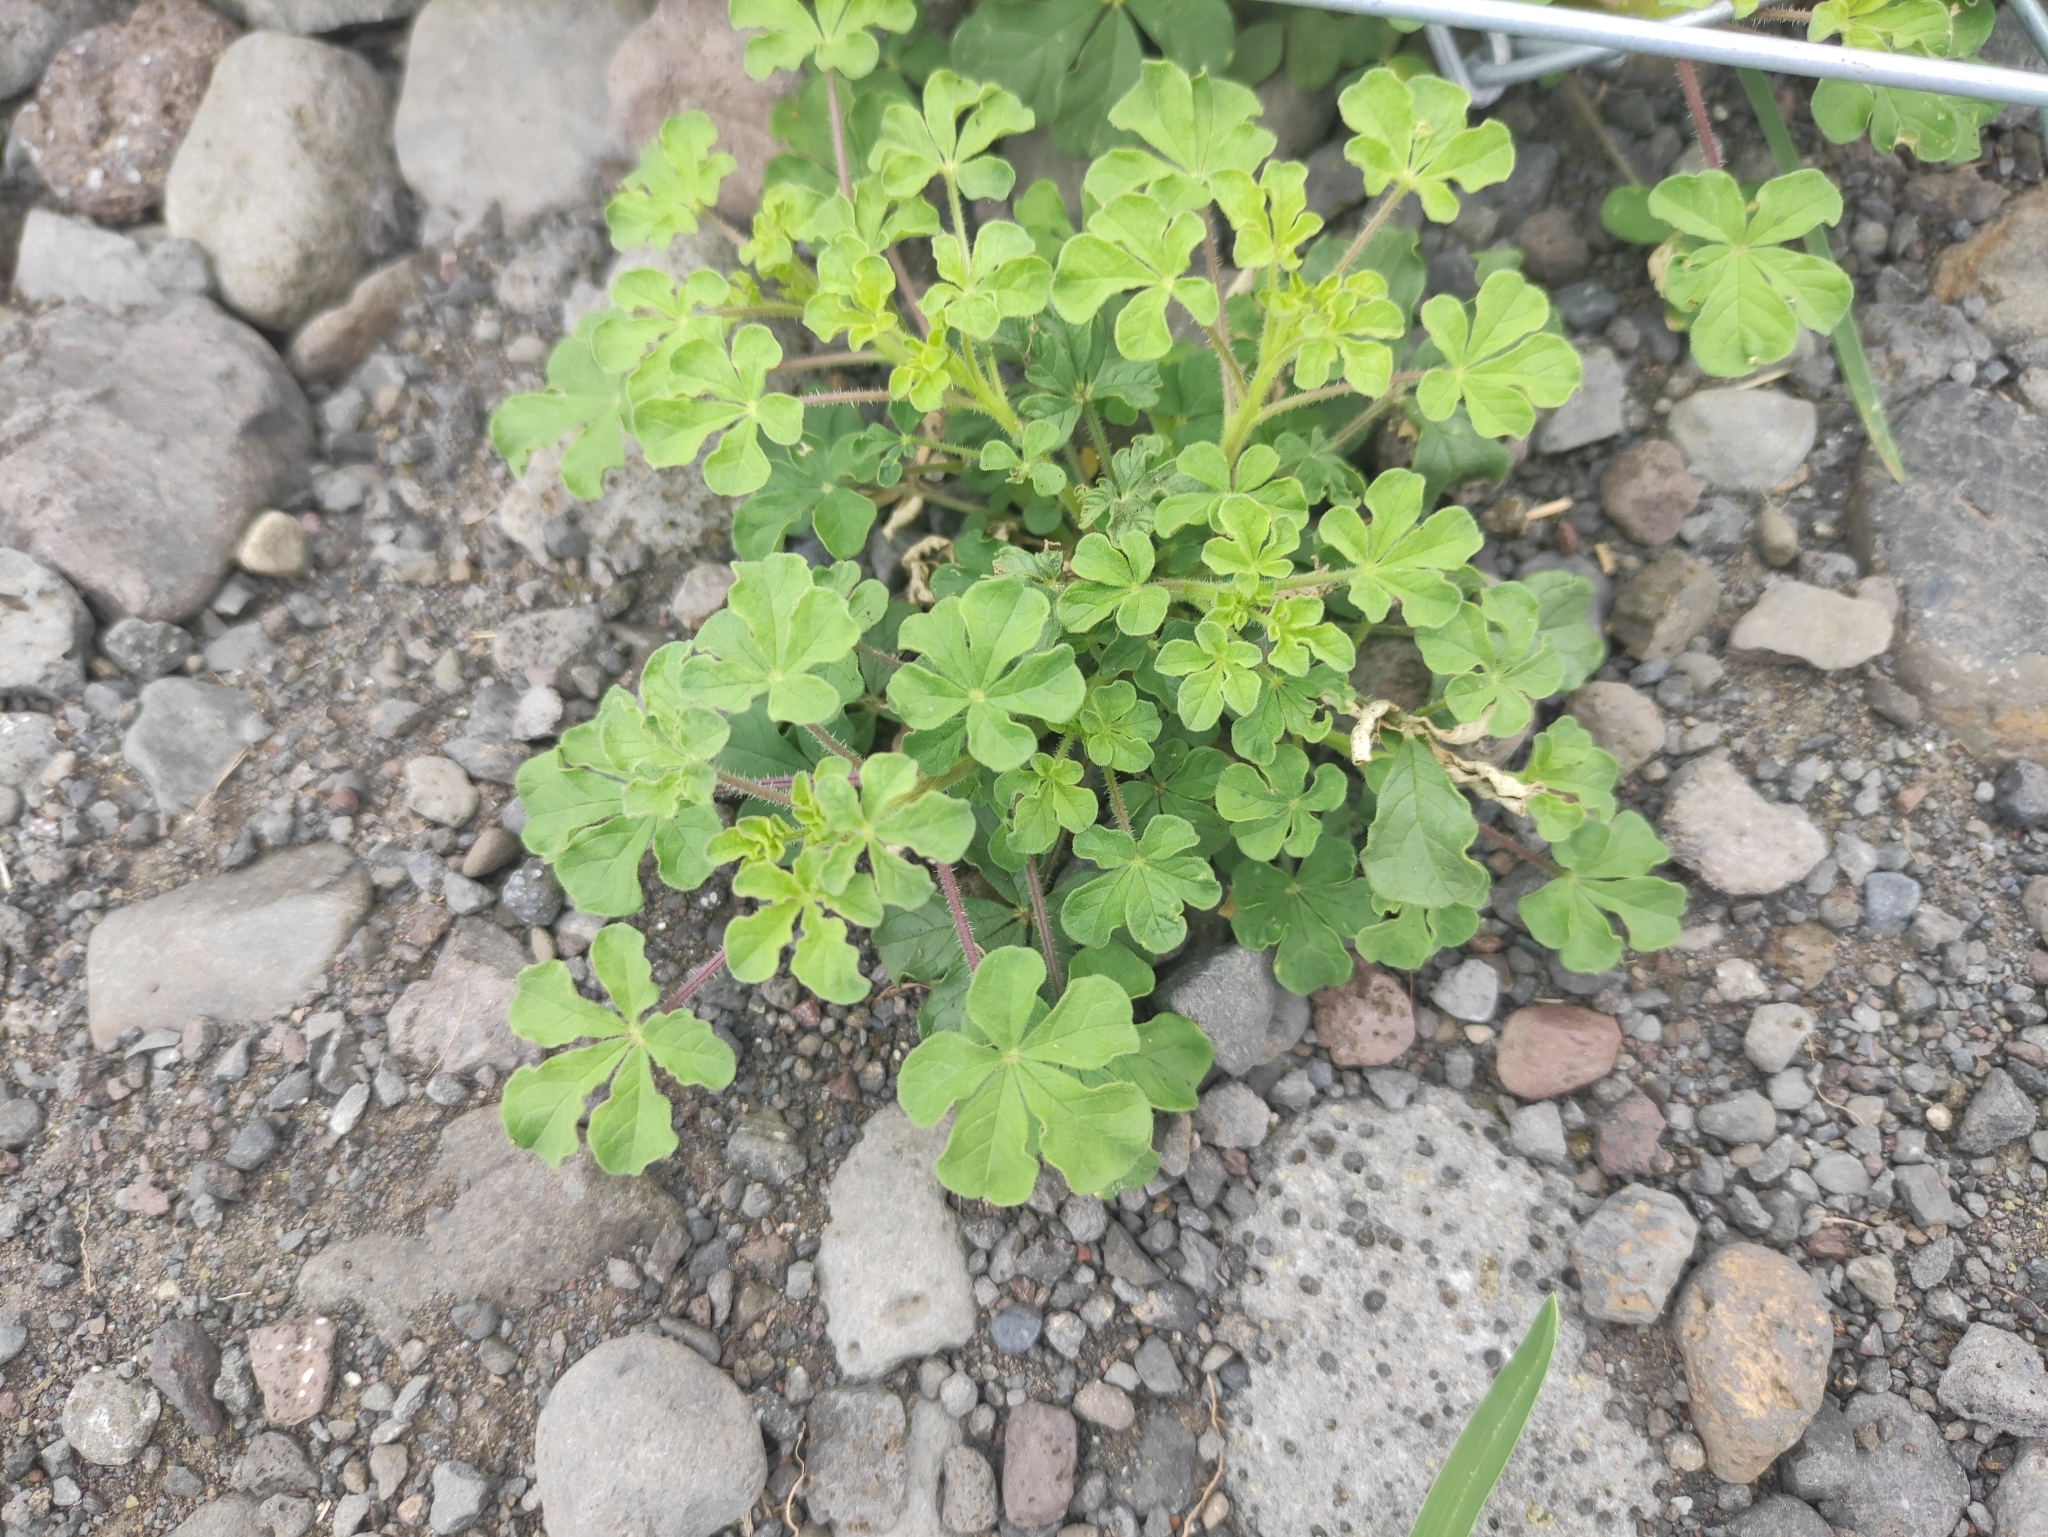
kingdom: Plantae
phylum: Tracheophyta
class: Magnoliopsida
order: Brassicales
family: Cleomaceae
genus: Arivela
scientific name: Arivela viscosa
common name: Asian spiderflower
